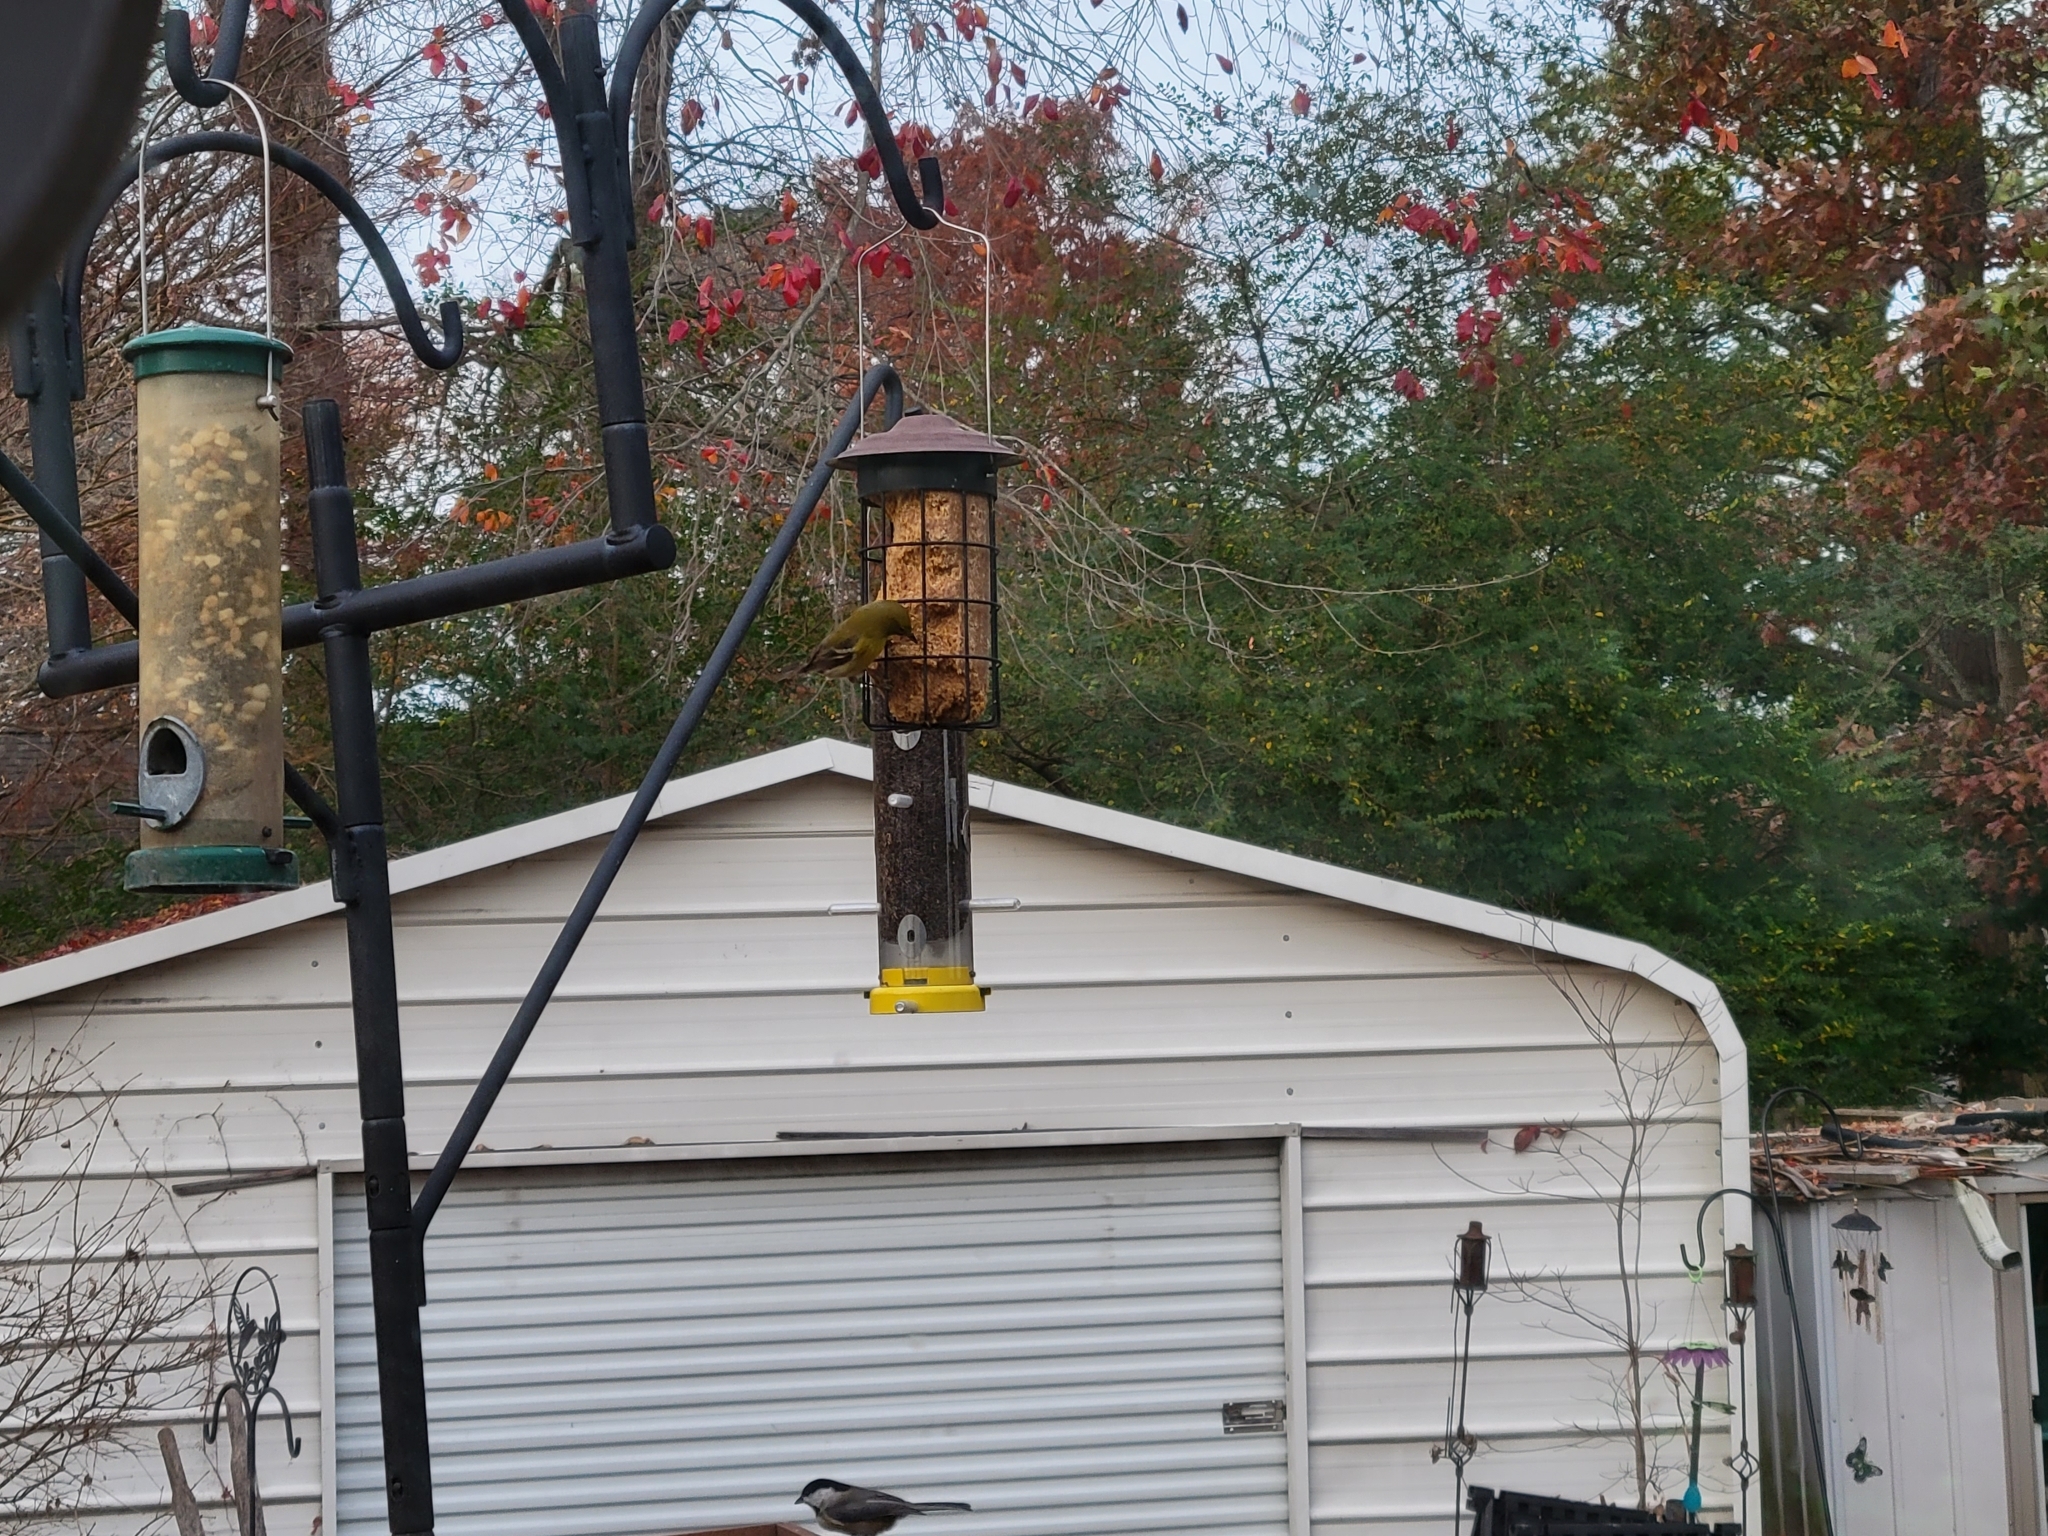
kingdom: Animalia
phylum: Chordata
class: Aves
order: Passeriformes
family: Paridae
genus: Poecile
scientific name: Poecile carolinensis
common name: Carolina chickadee
